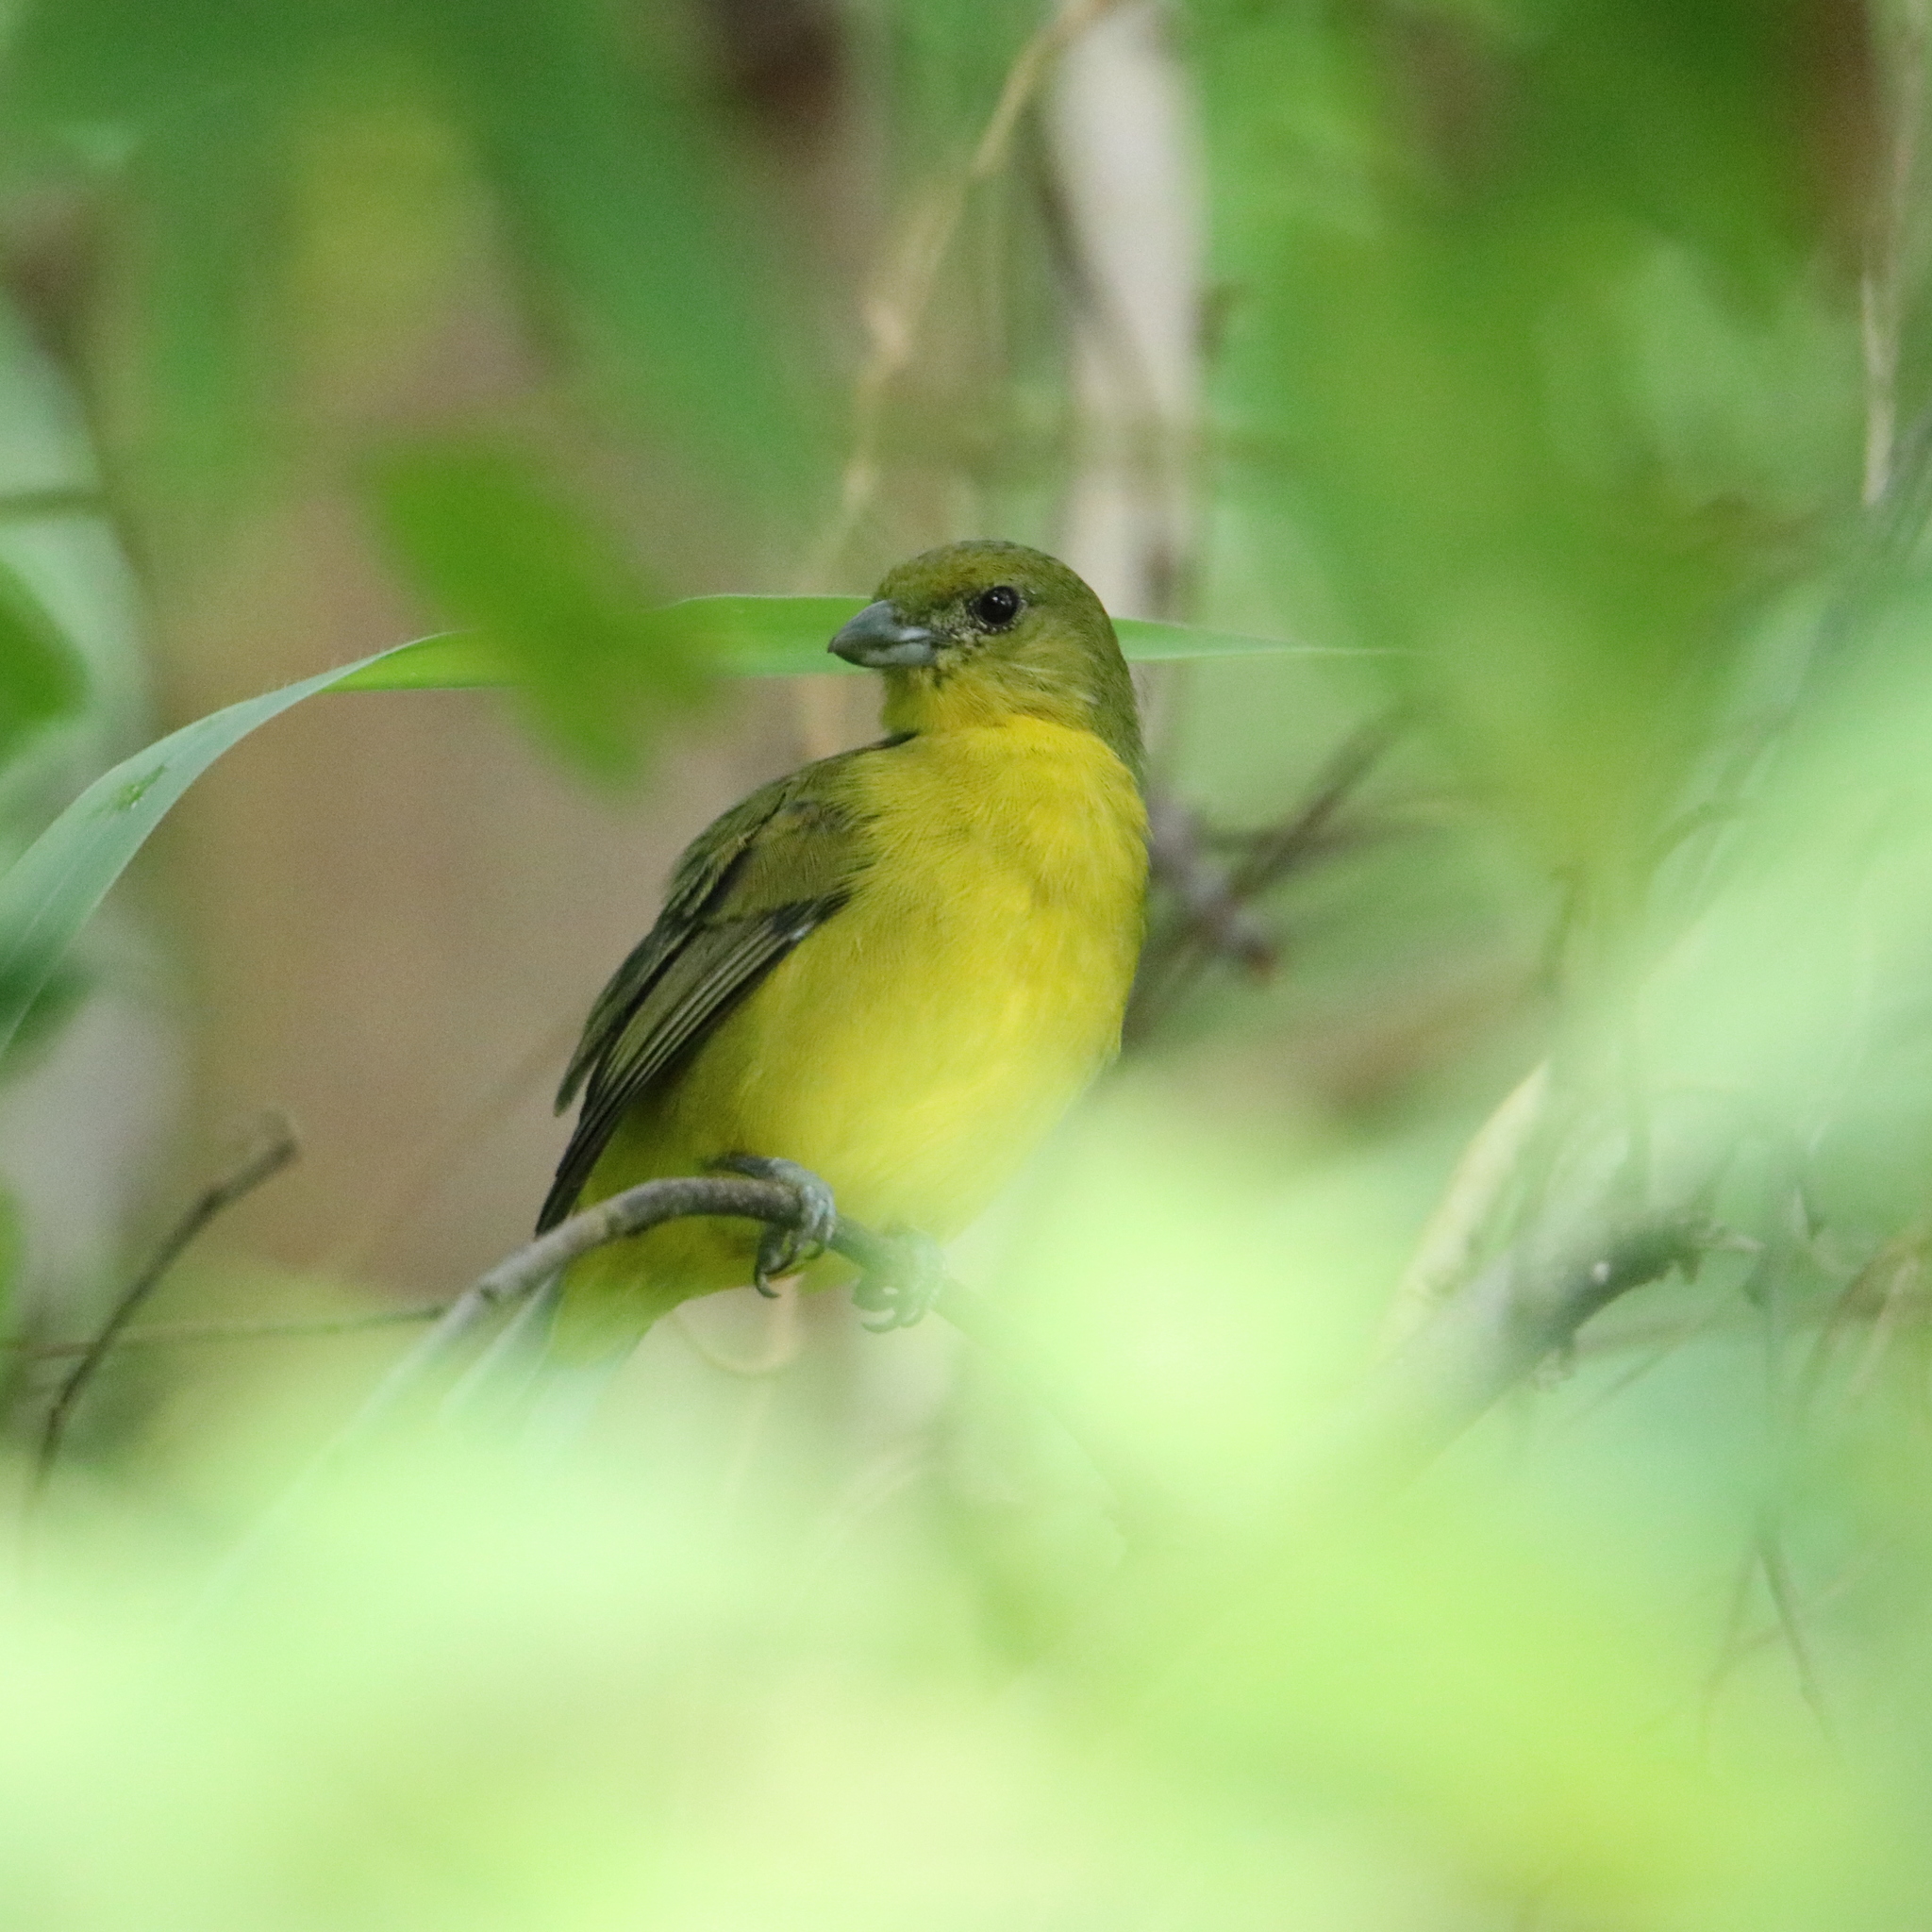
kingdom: Animalia
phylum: Chordata
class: Aves
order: Passeriformes
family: Fringillidae
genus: Euphonia
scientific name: Euphonia laniirostris
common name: Thick-billed euphonia
